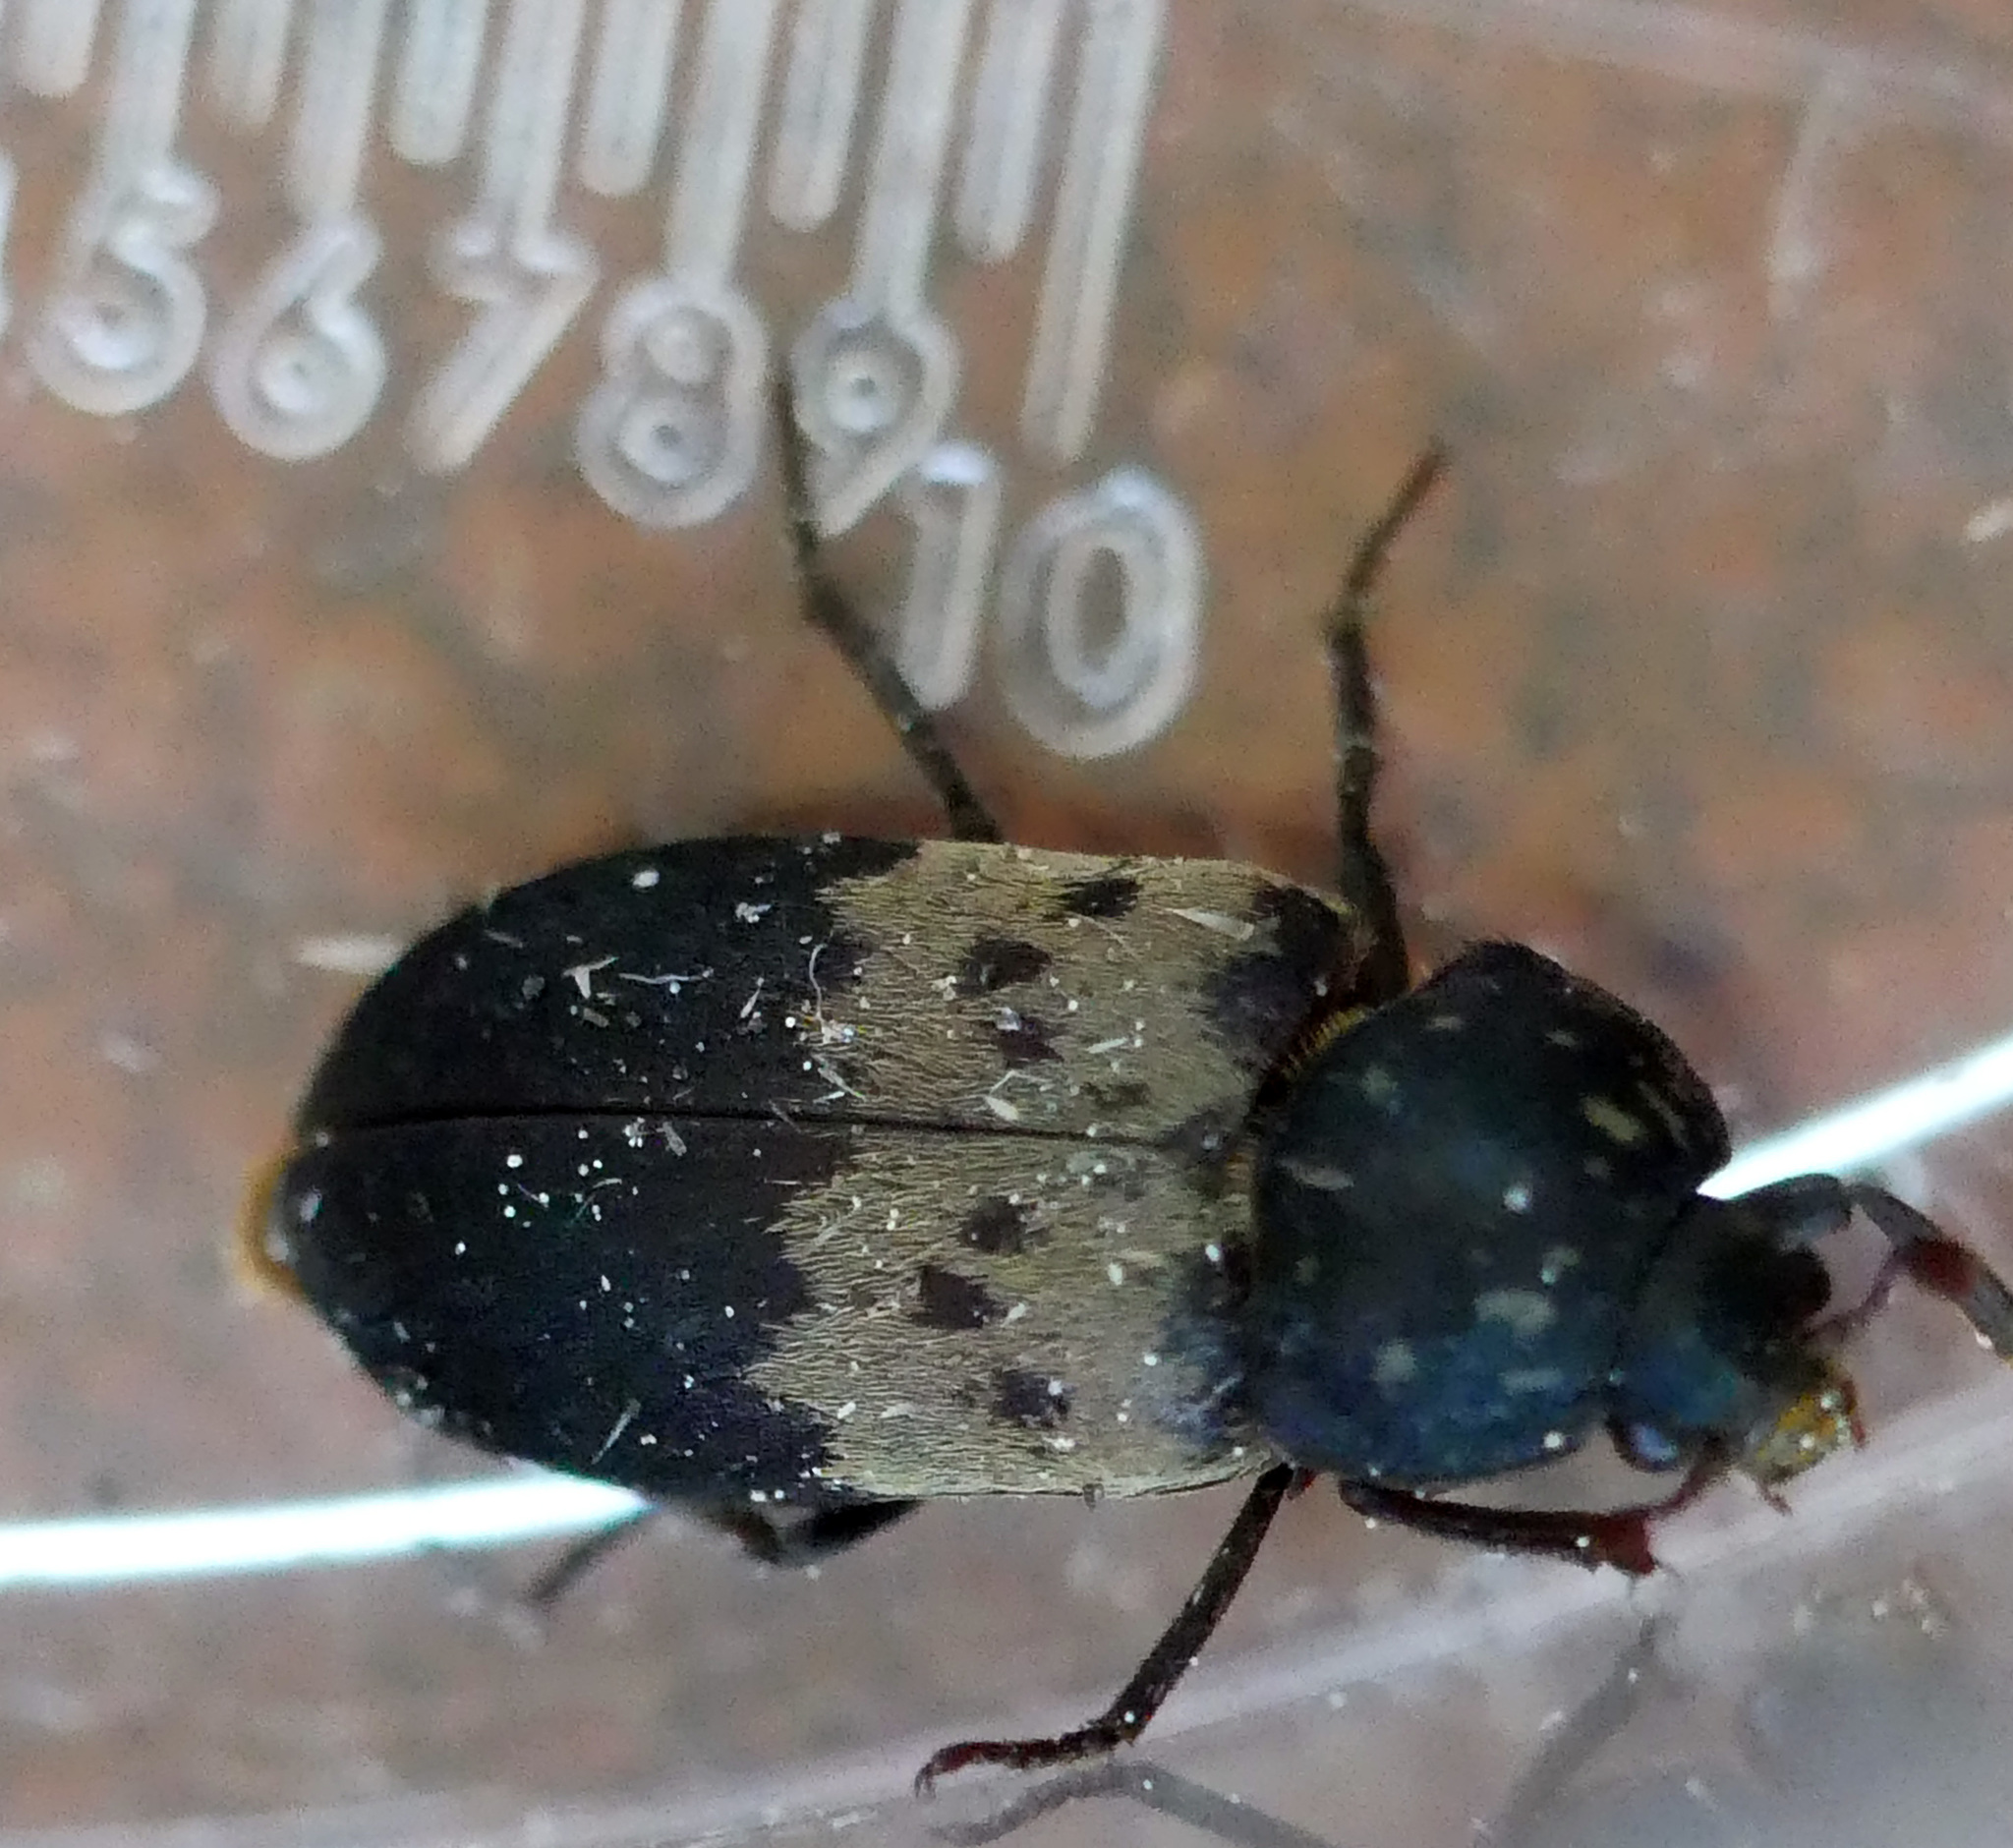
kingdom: Animalia
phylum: Arthropoda
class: Insecta
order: Coleoptera
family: Dermestidae
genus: Dermestes
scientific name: Dermestes lardarius
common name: Larder beetle
